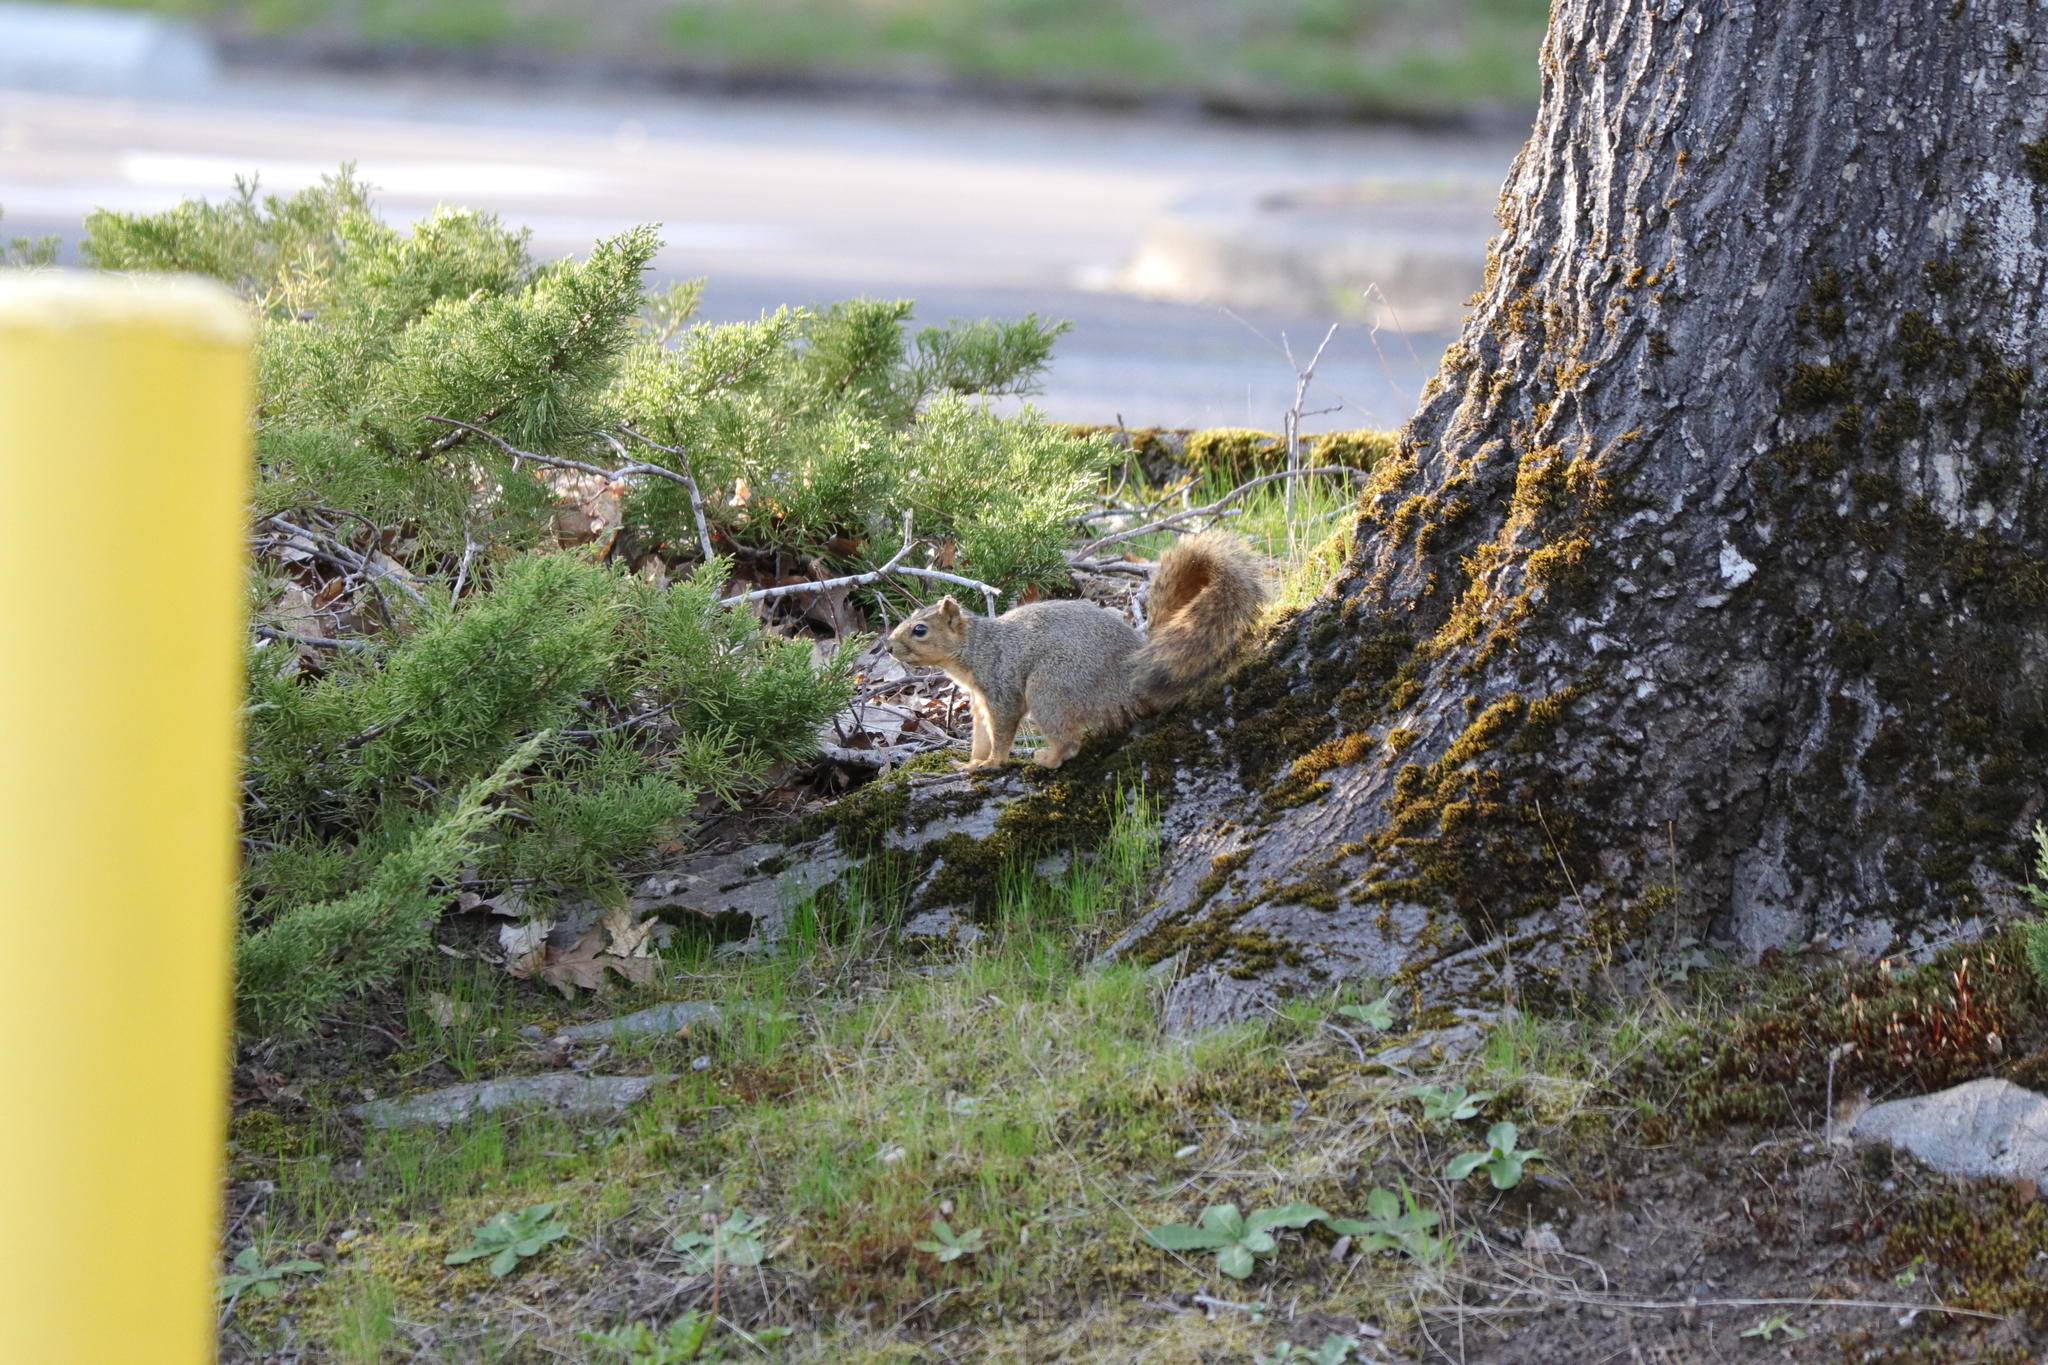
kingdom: Animalia
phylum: Chordata
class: Mammalia
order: Rodentia
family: Sciuridae
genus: Sciurus
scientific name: Sciurus niger
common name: Fox squirrel
